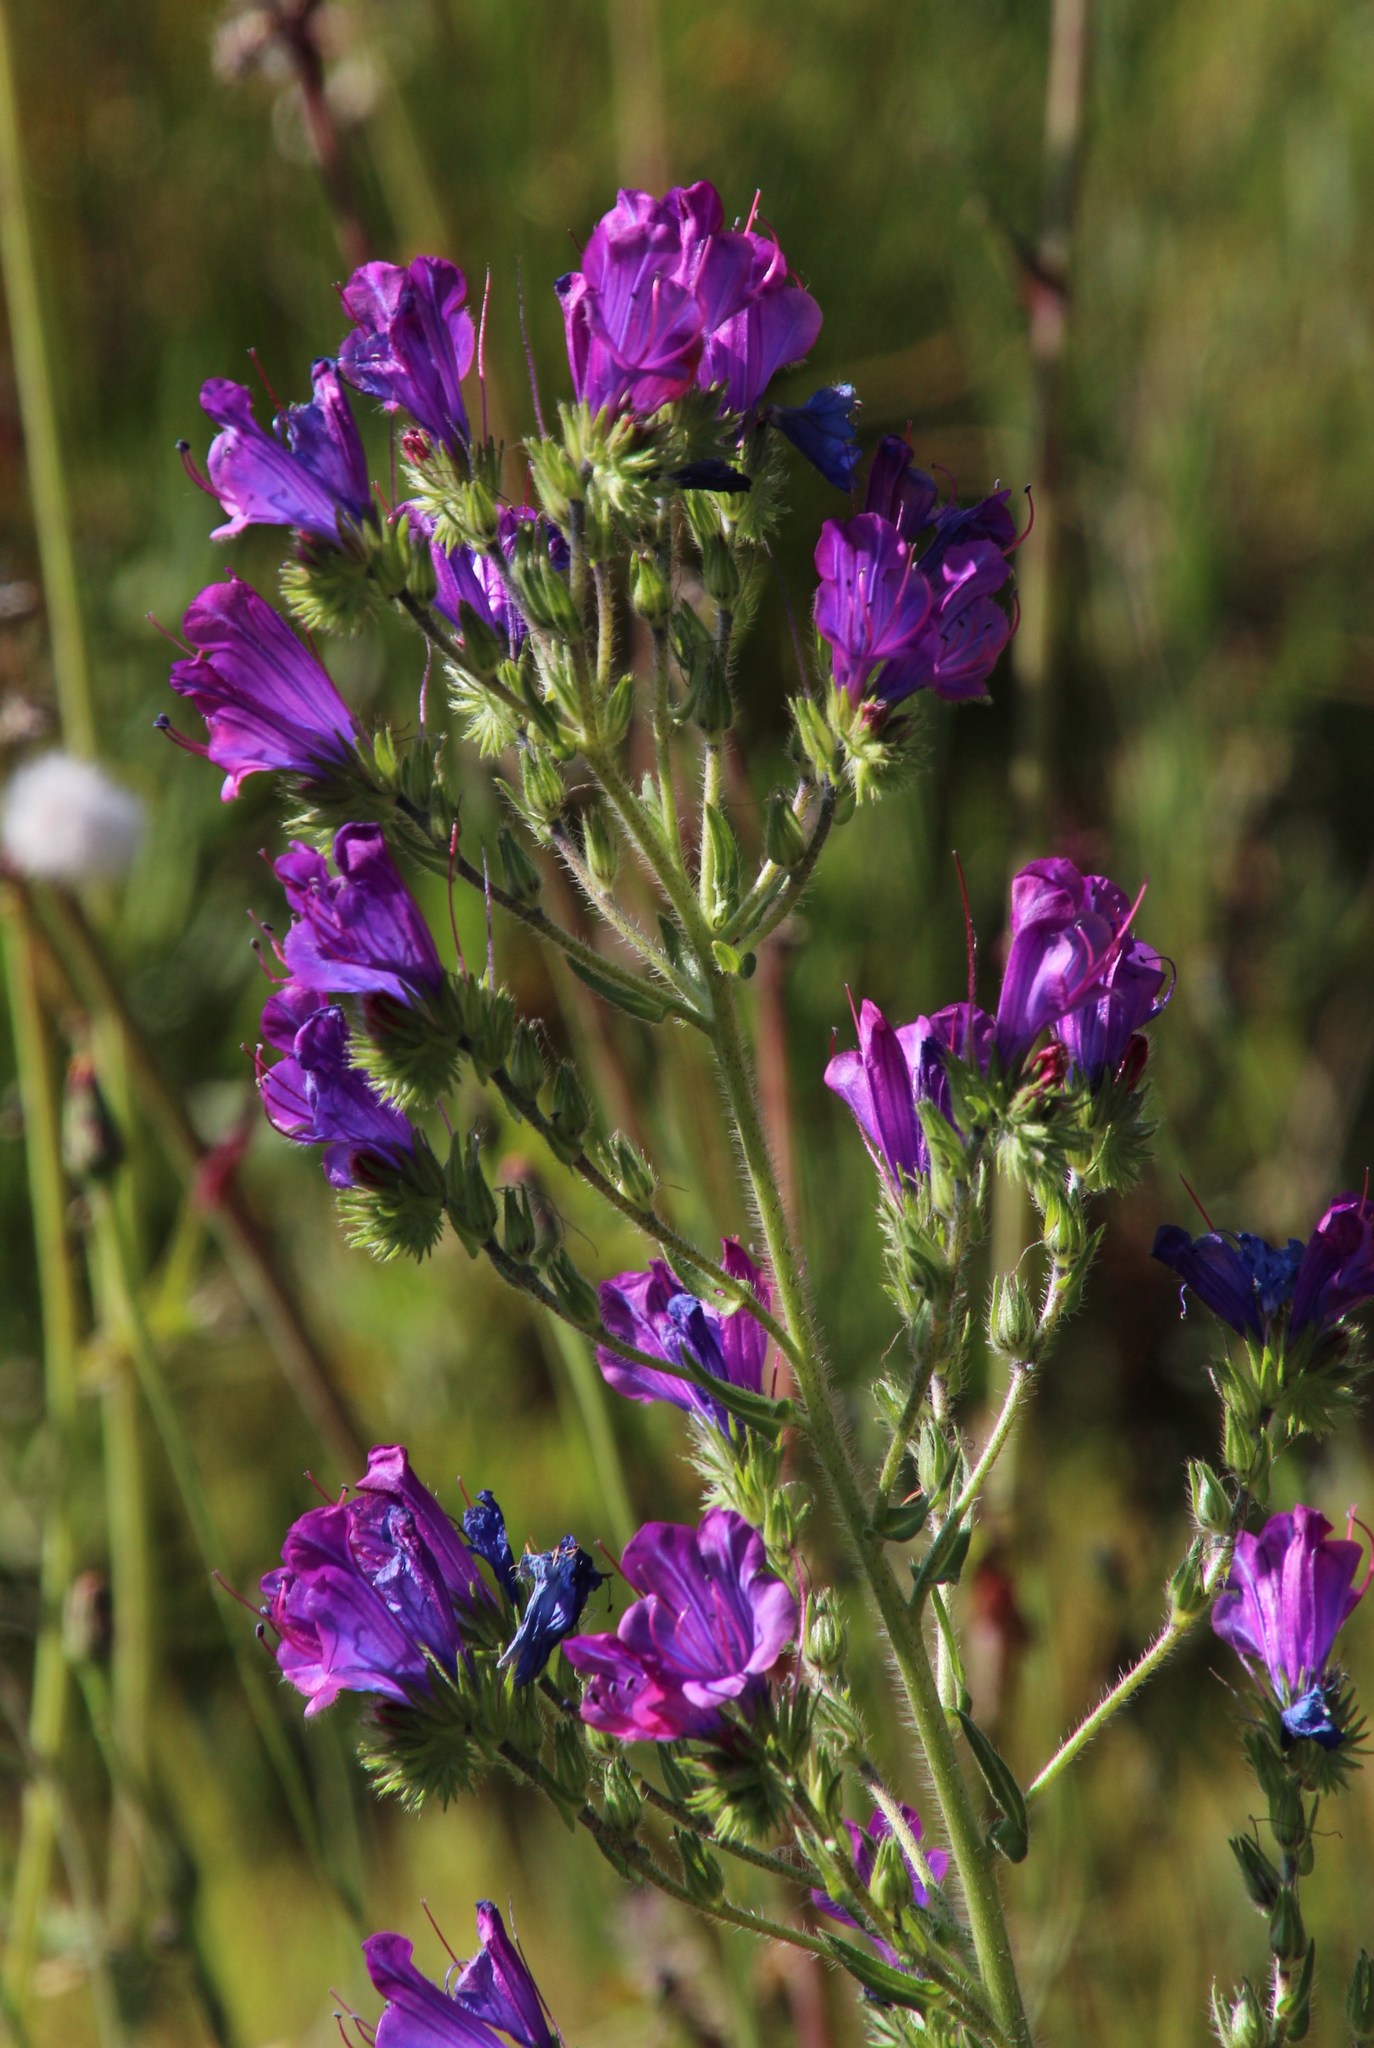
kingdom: Plantae
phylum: Tracheophyta
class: Magnoliopsida
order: Boraginales
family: Boraginaceae
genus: Echium
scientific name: Echium plantagineum
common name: Purple viper's-bugloss
